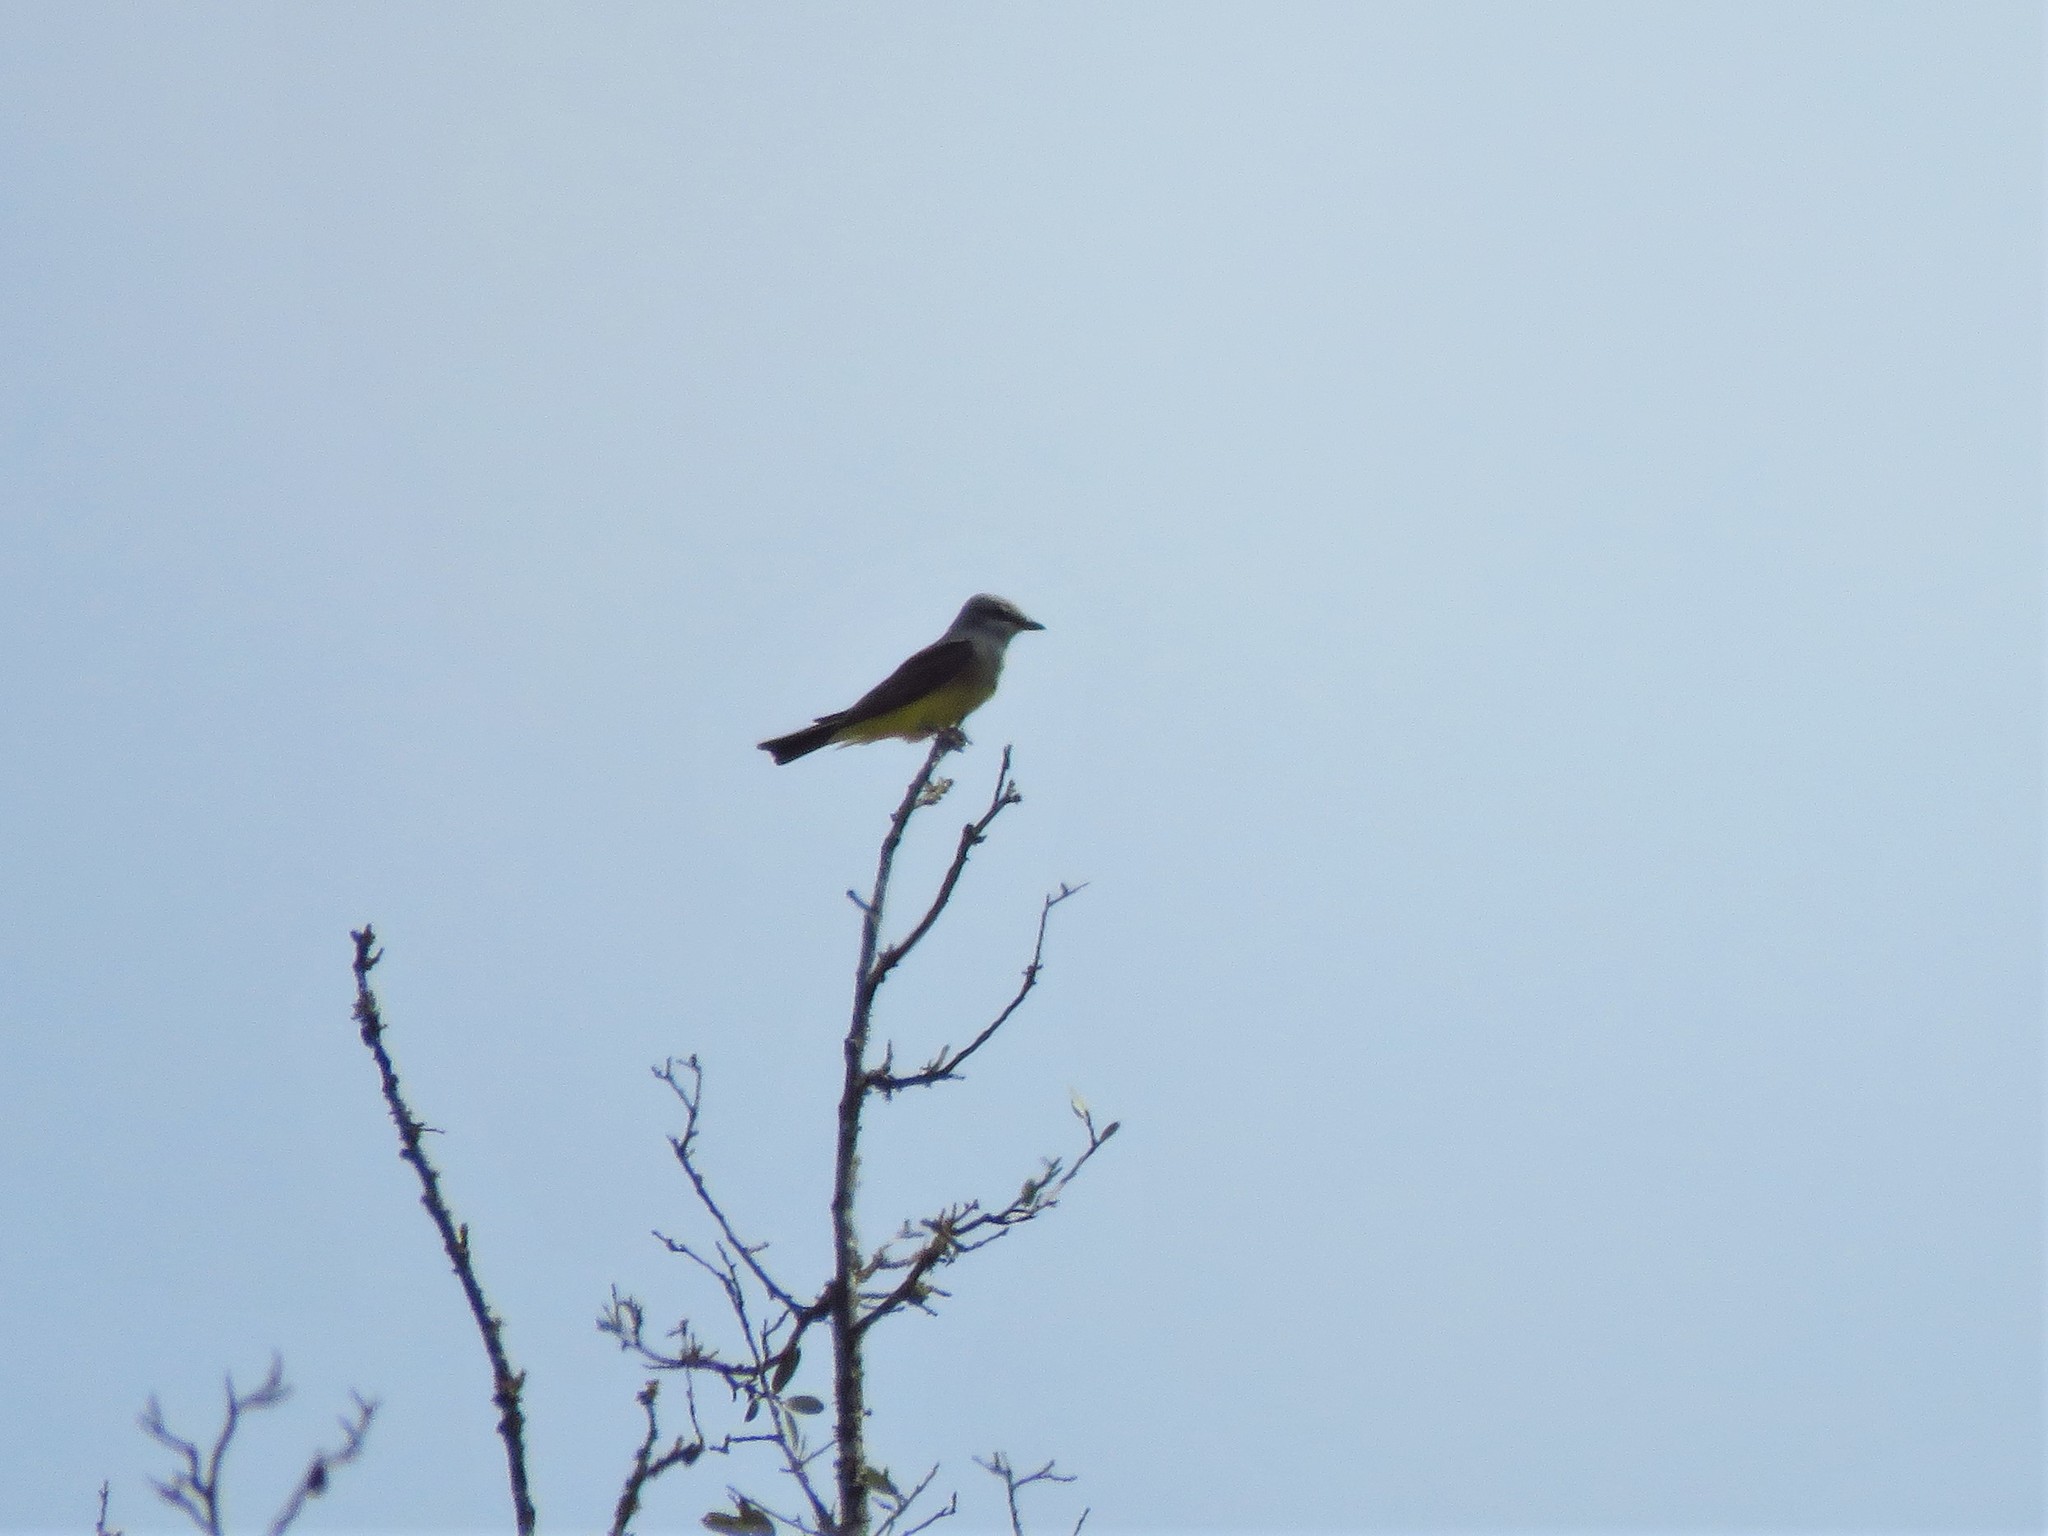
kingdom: Animalia
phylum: Chordata
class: Aves
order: Passeriformes
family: Tyrannidae
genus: Tyrannus
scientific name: Tyrannus verticalis
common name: Western kingbird
